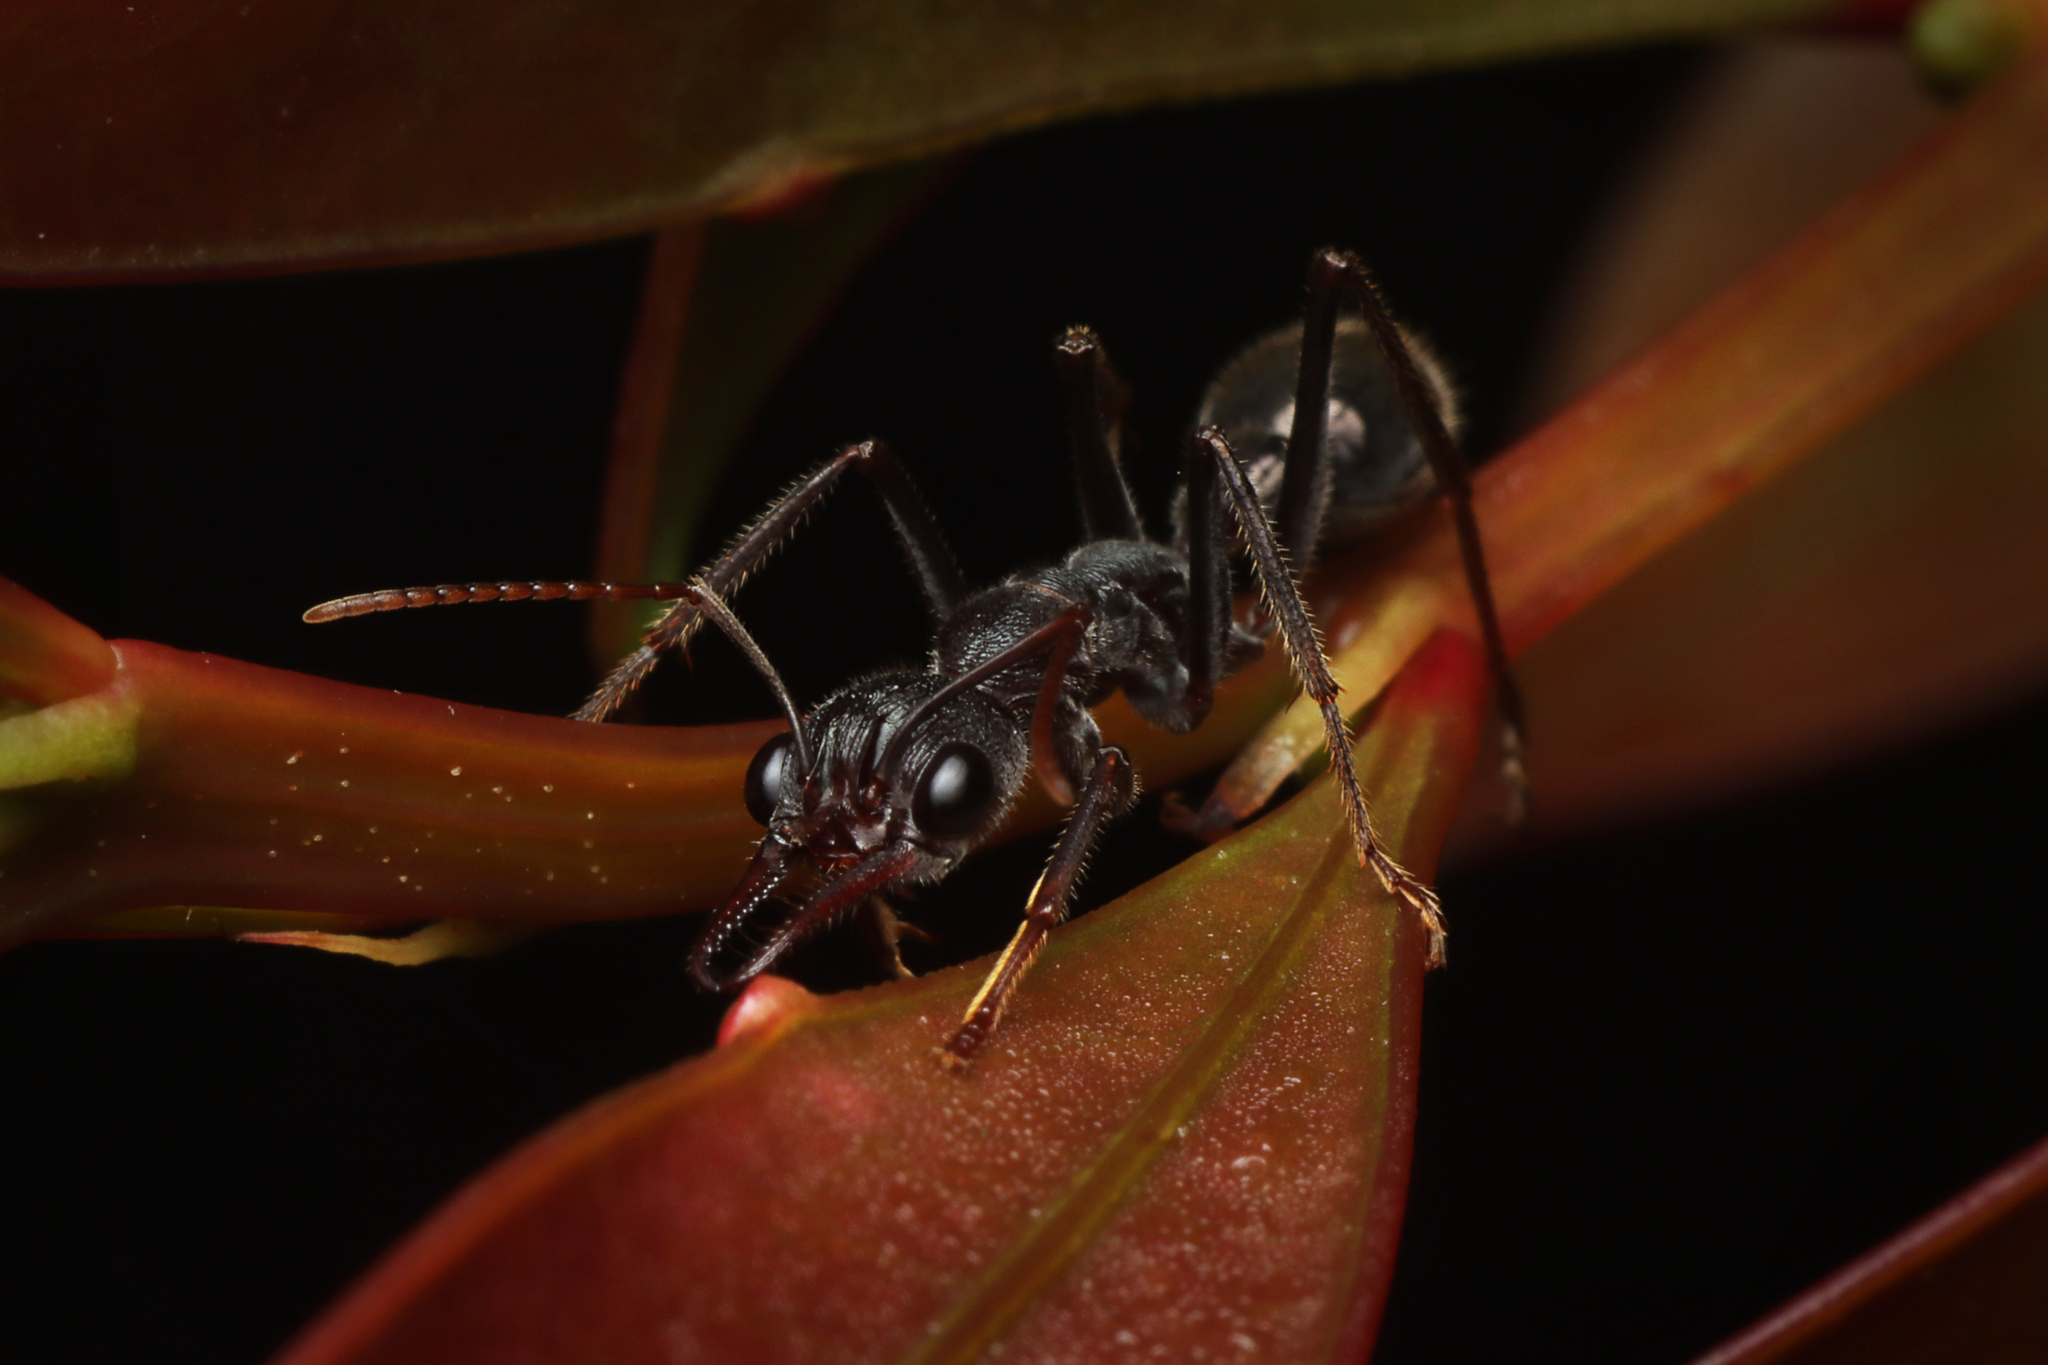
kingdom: Animalia
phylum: Arthropoda
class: Insecta
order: Hymenoptera
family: Formicidae
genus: Myrmecia
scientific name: Myrmecia pyriformis
